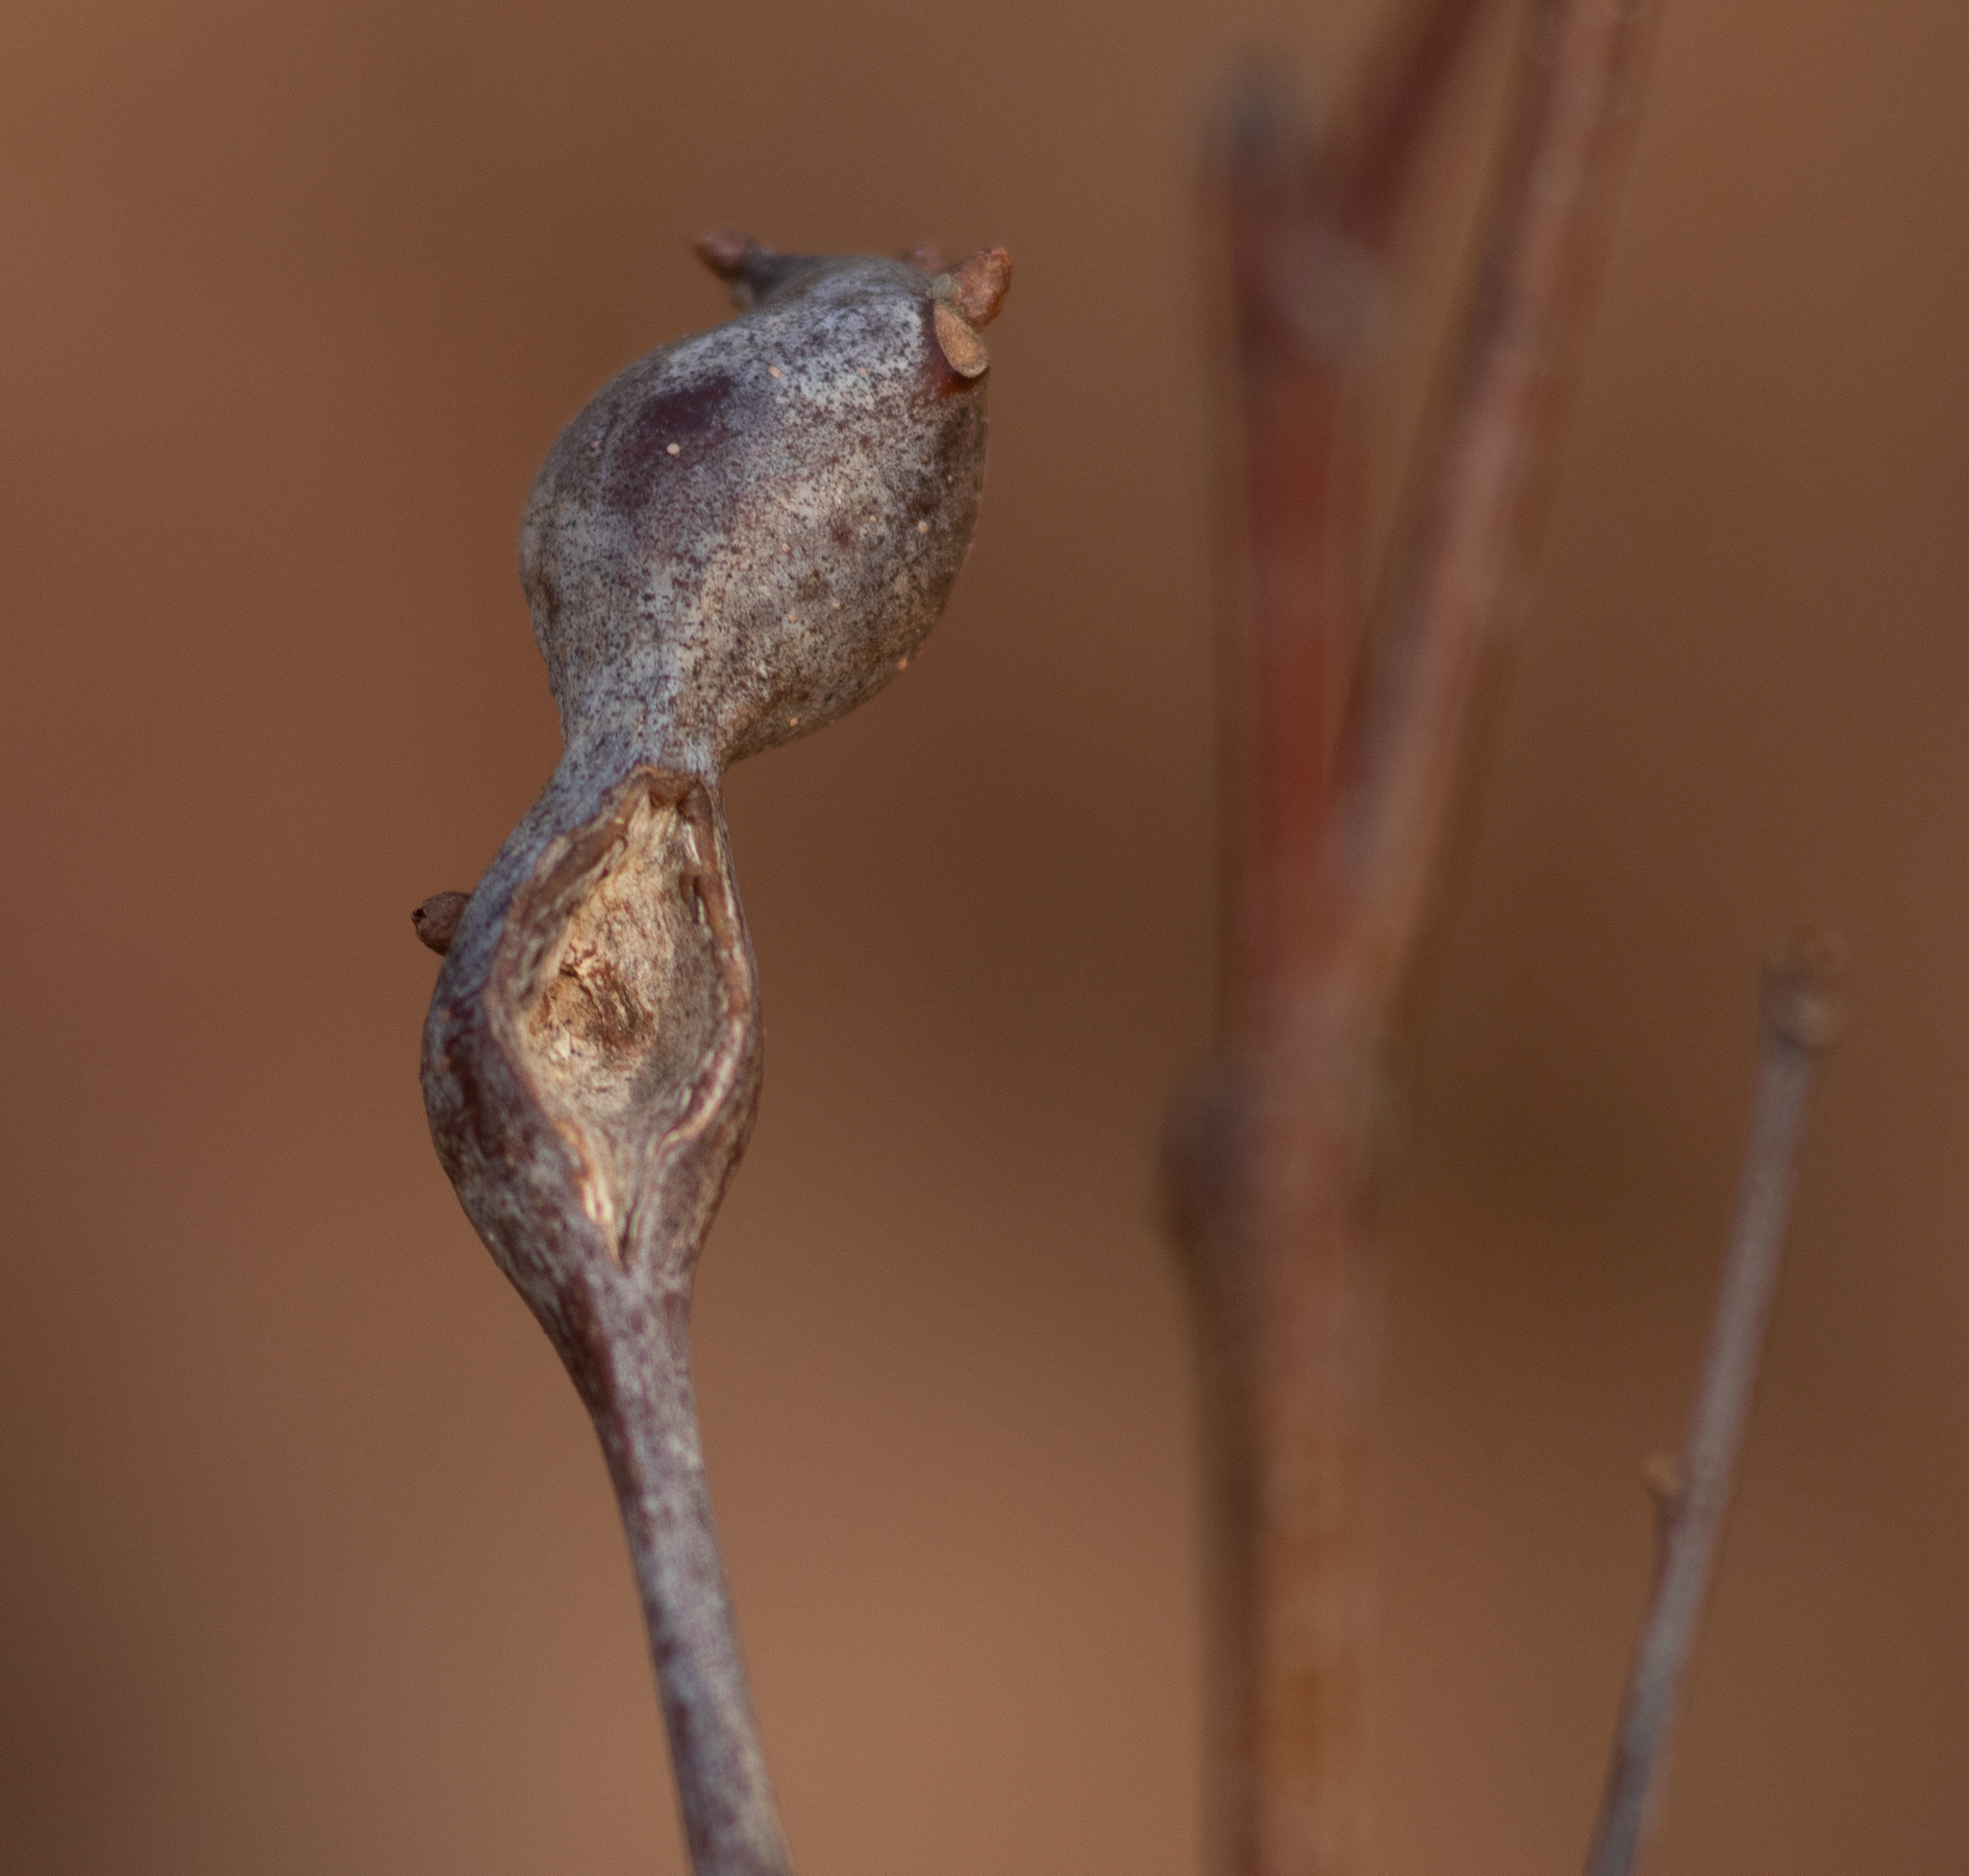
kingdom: Animalia
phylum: Arthropoda
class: Insecta
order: Hymenoptera
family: Cynipidae
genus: Zapatella
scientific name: Zapatella quercusphellos
